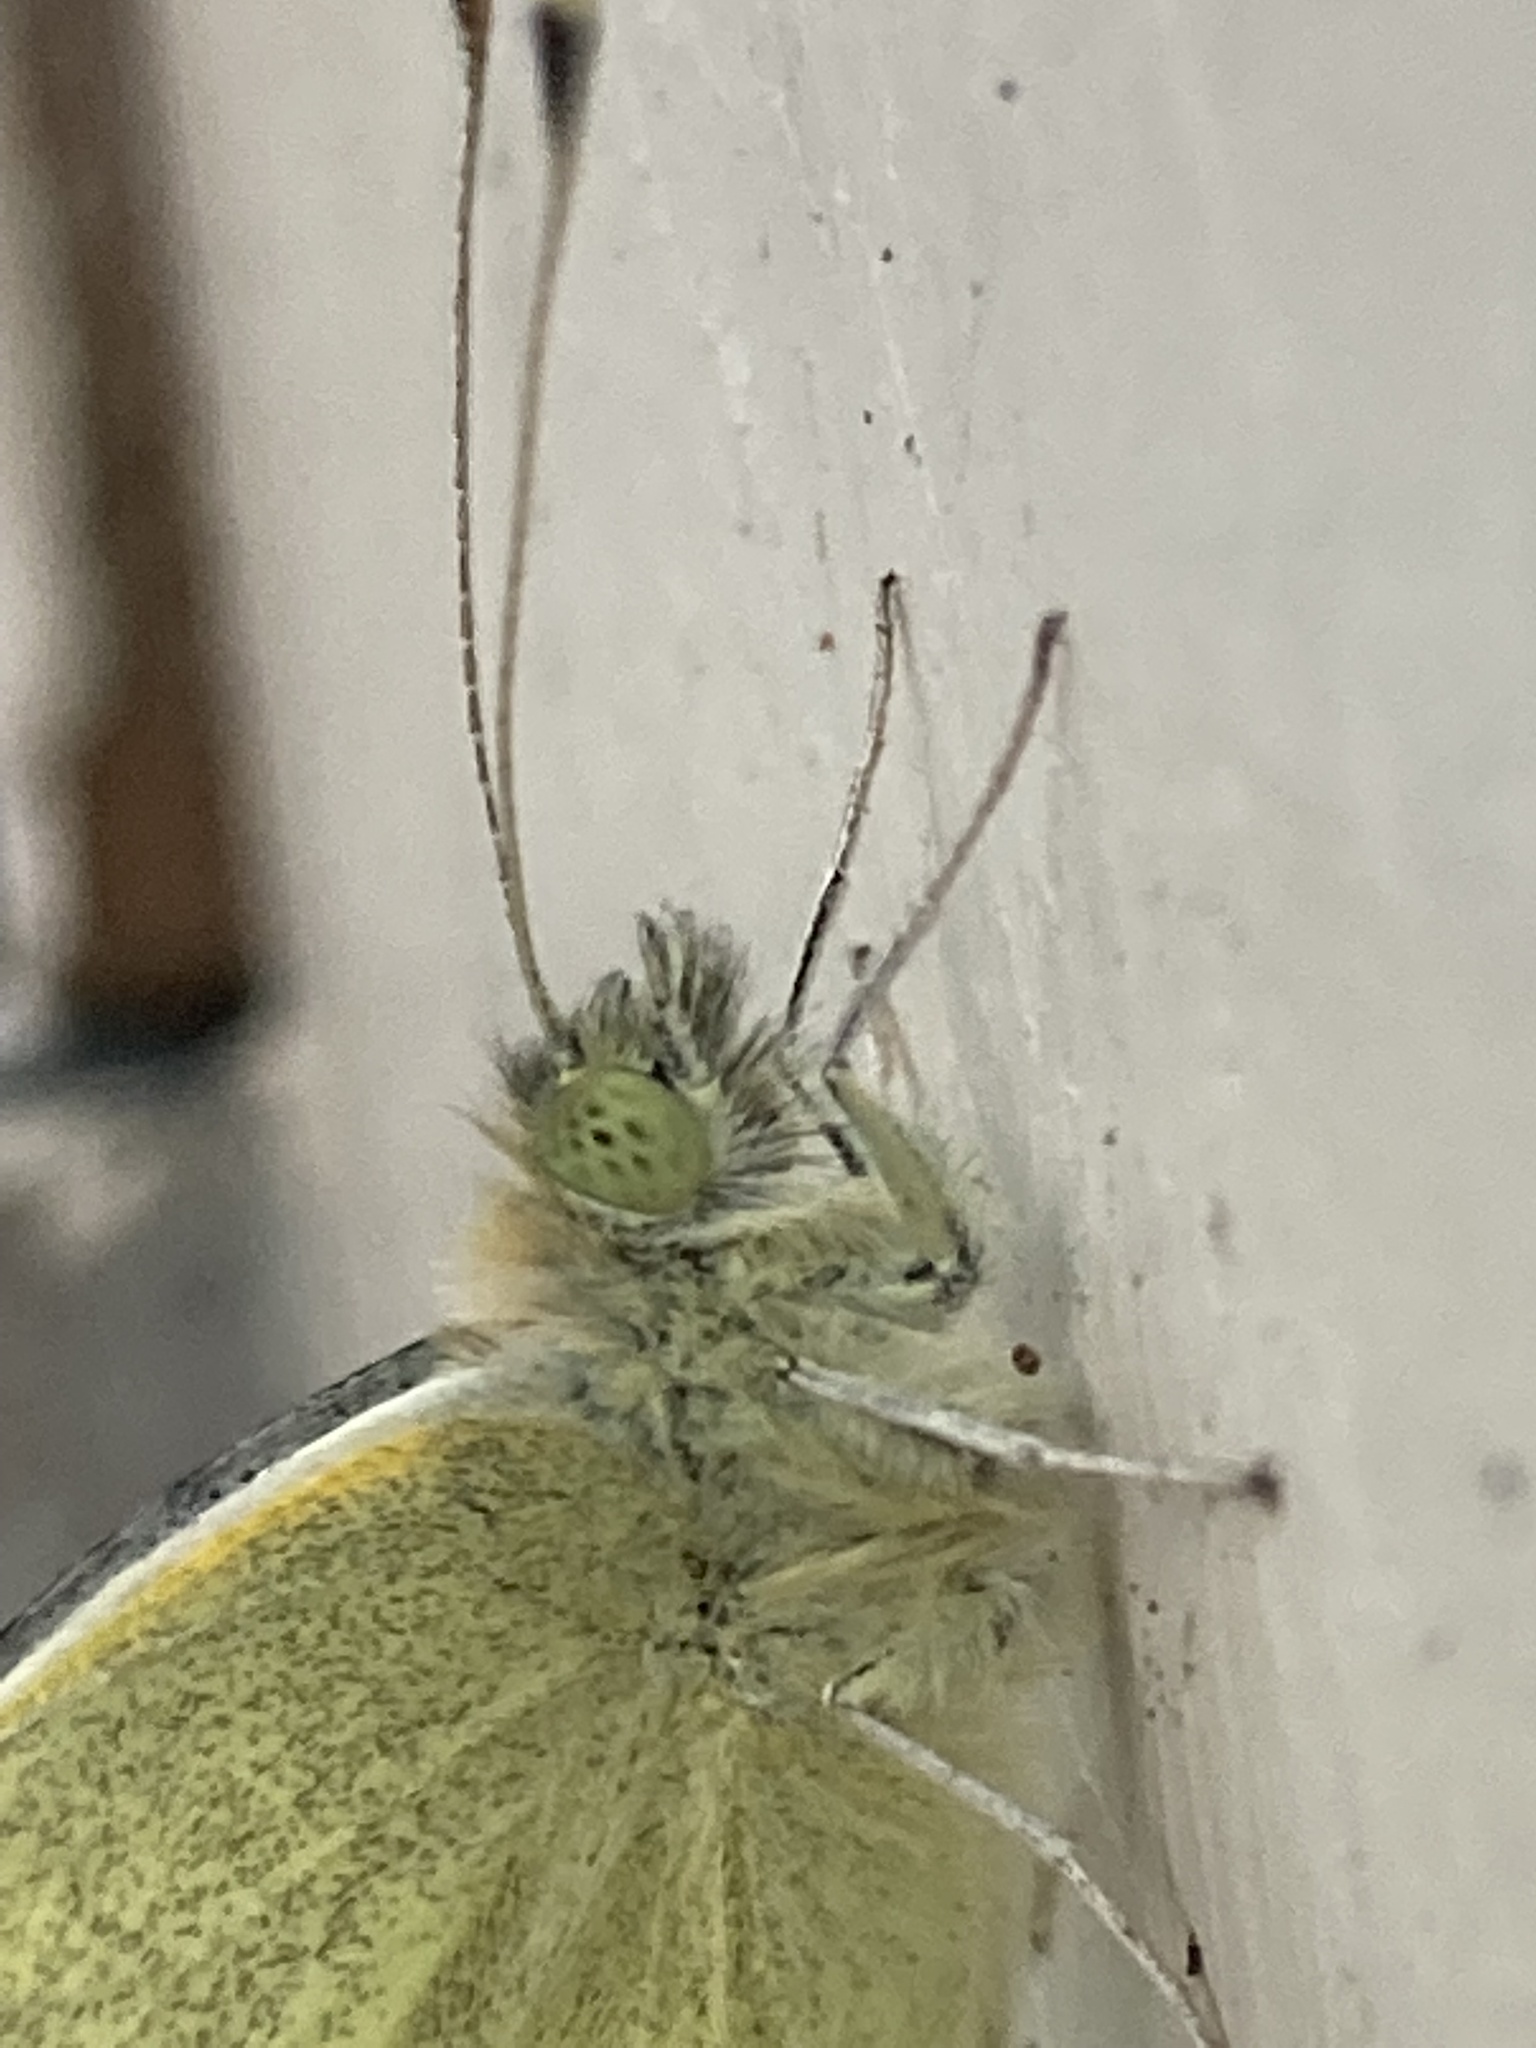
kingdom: Animalia
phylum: Arthropoda
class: Insecta
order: Lepidoptera
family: Pieridae
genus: Pieris
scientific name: Pieris rapae
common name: Small white
